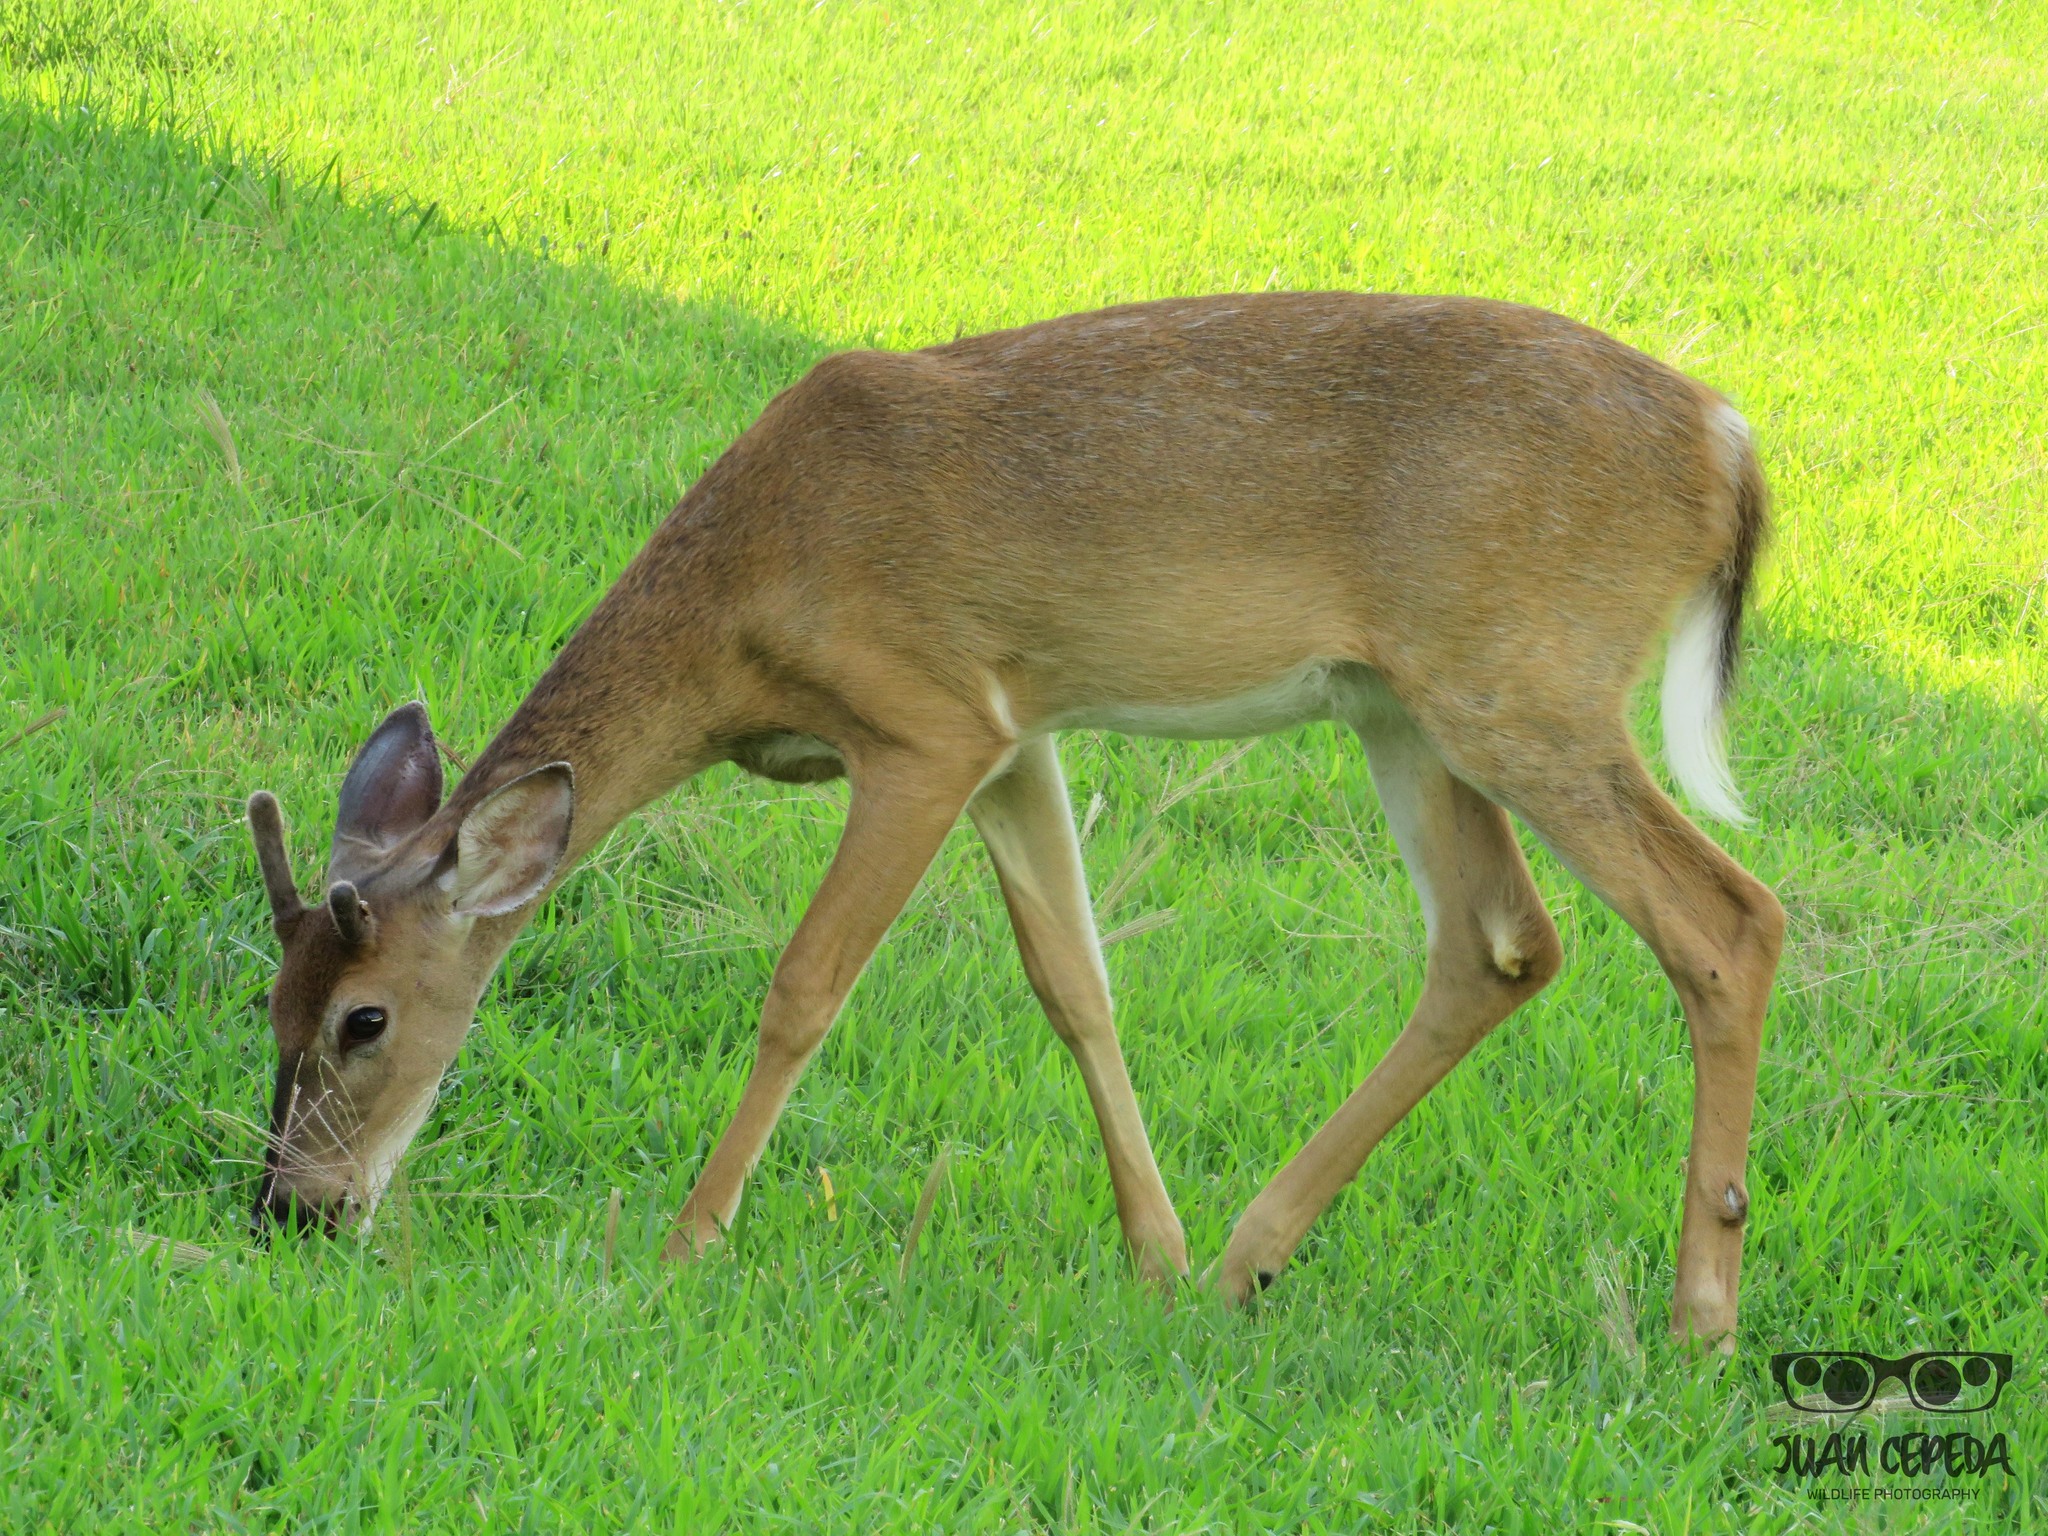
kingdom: Animalia
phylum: Chordata
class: Mammalia
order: Artiodactyla
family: Cervidae
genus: Odocoileus
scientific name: Odocoileus virginianus
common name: White-tailed deer
